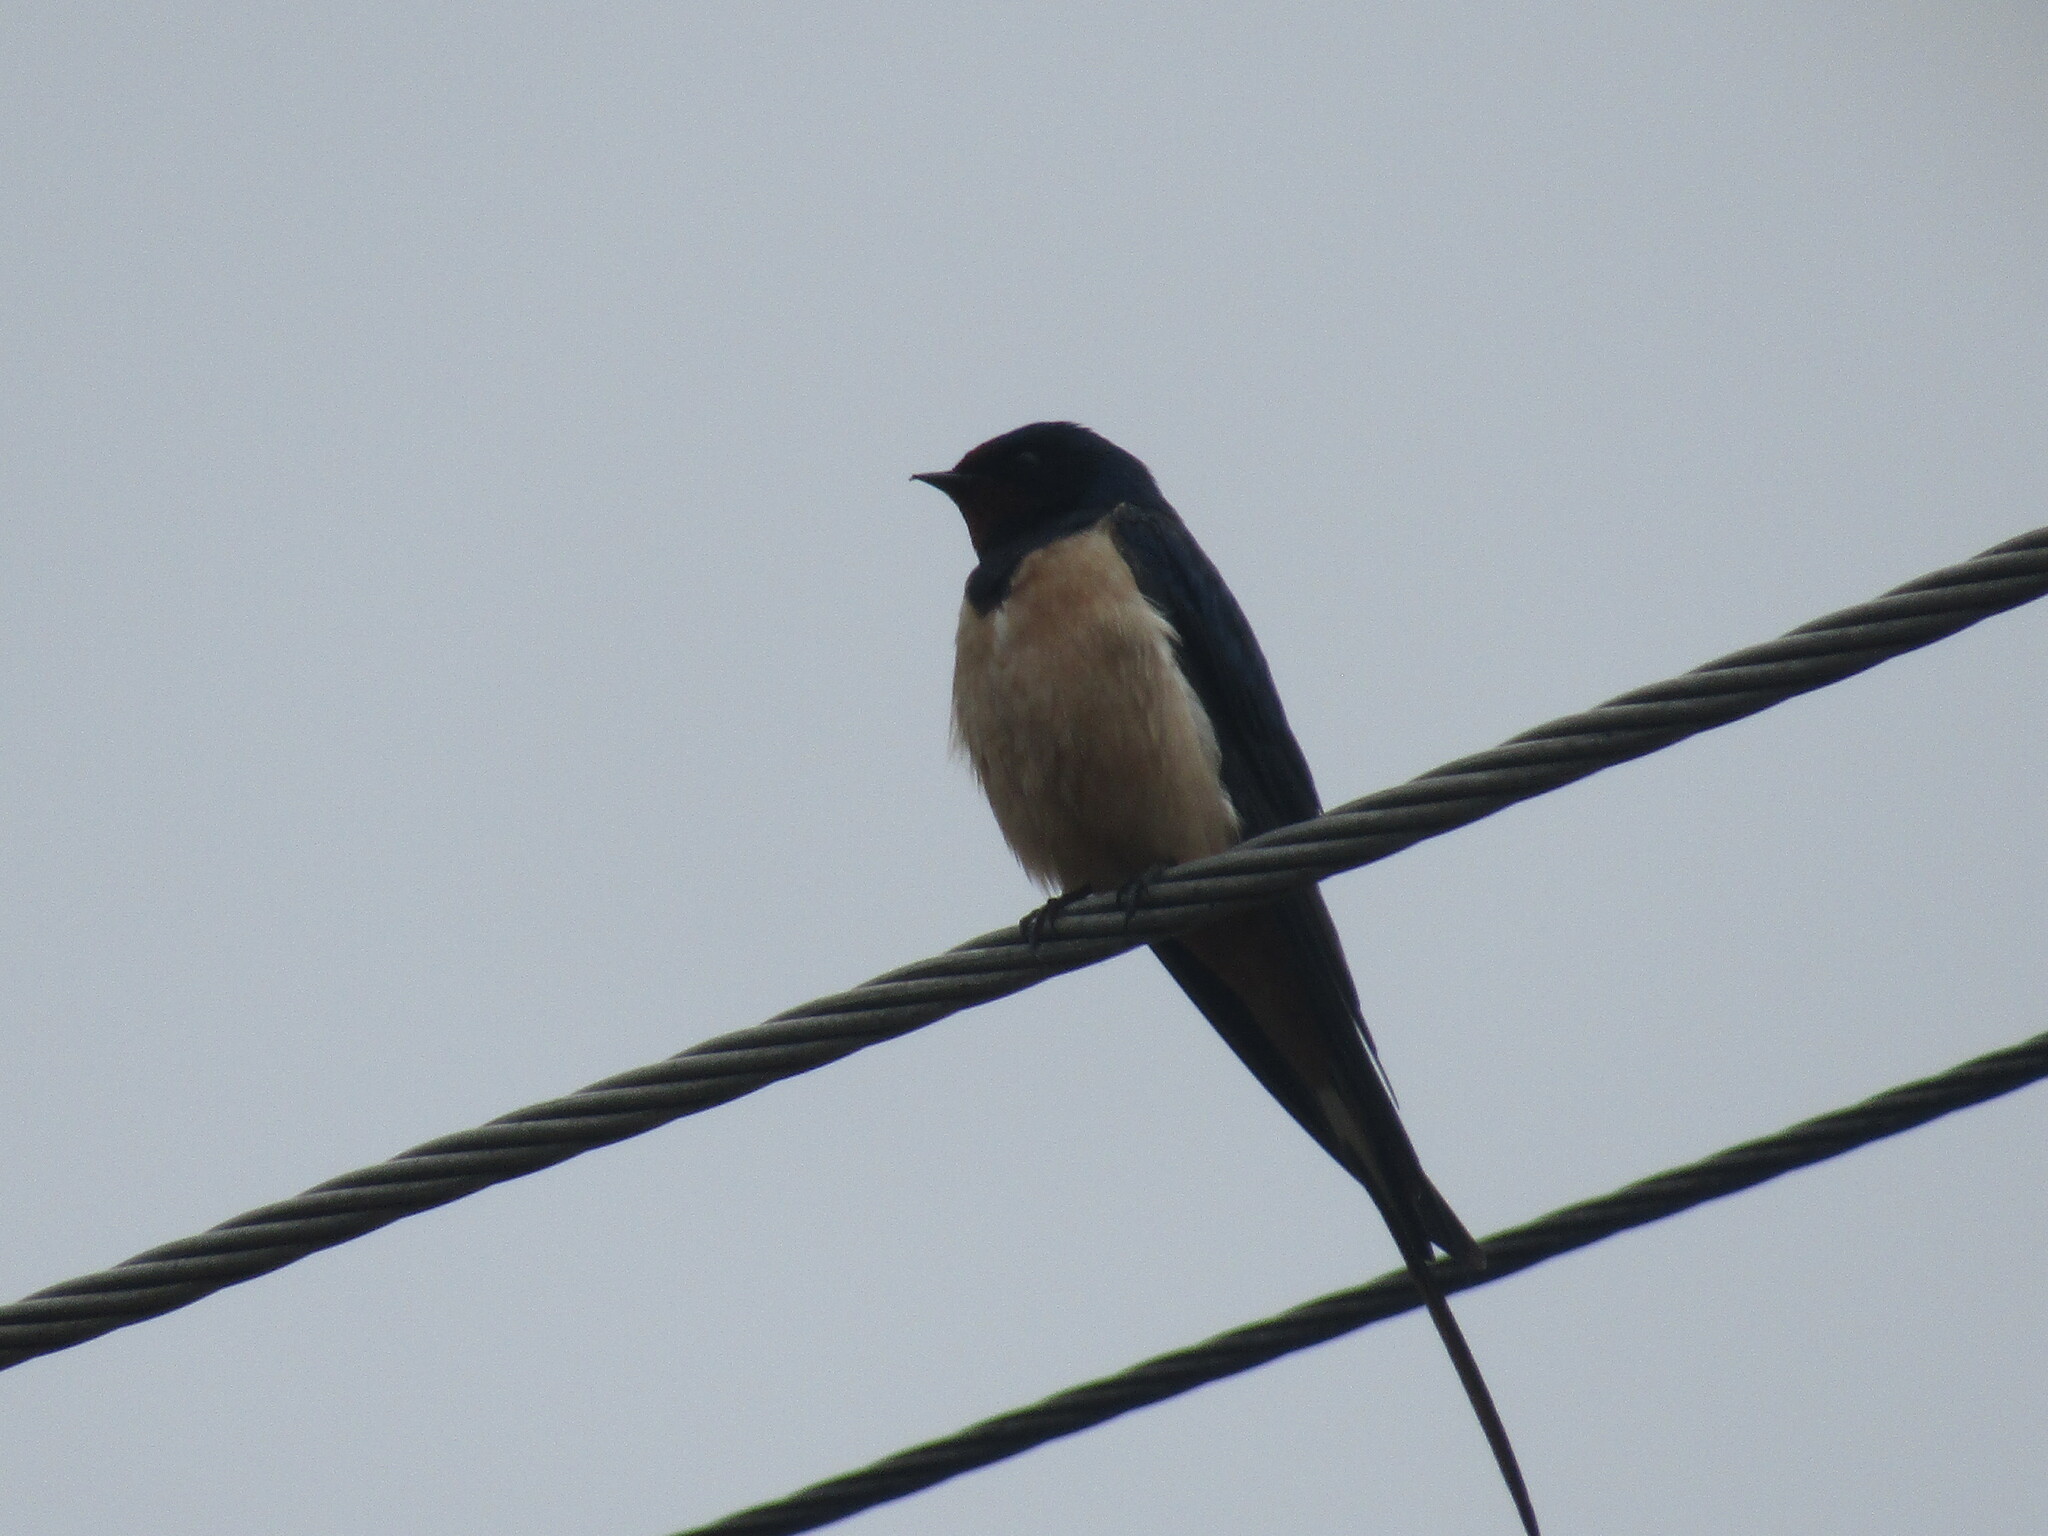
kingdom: Animalia
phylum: Chordata
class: Aves
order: Passeriformes
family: Hirundinidae
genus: Hirundo
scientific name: Hirundo rustica
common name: Barn swallow
